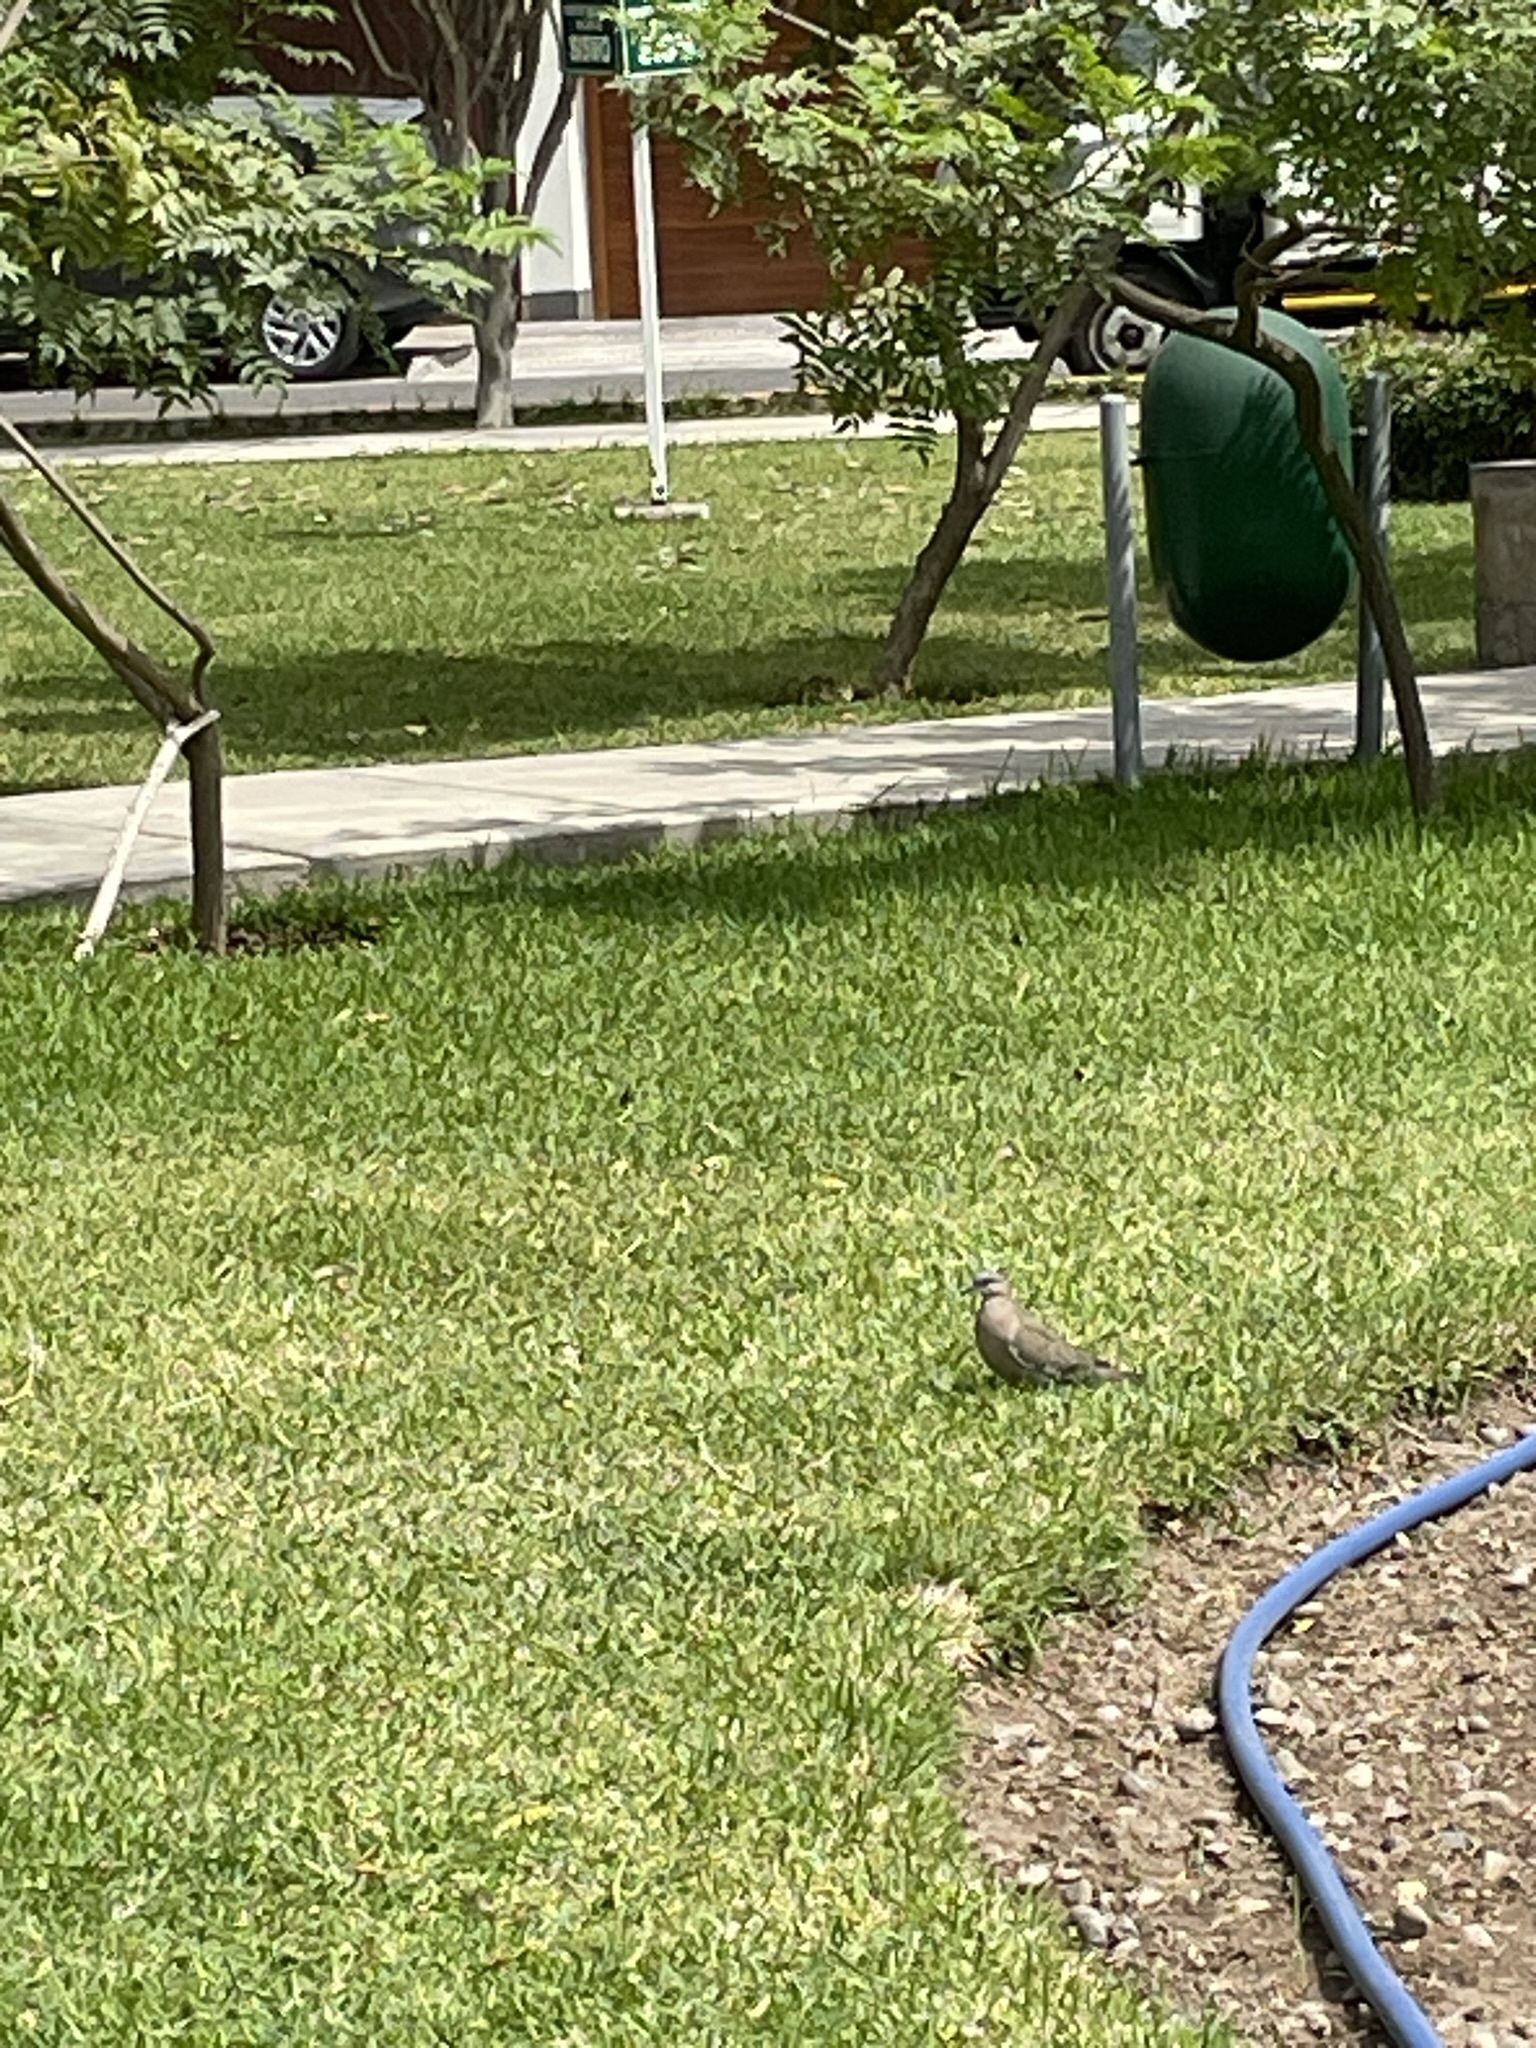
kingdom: Animalia
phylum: Chordata
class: Aves
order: Columbiformes
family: Columbidae
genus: Zenaida
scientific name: Zenaida meloda
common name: West peruvian dove
